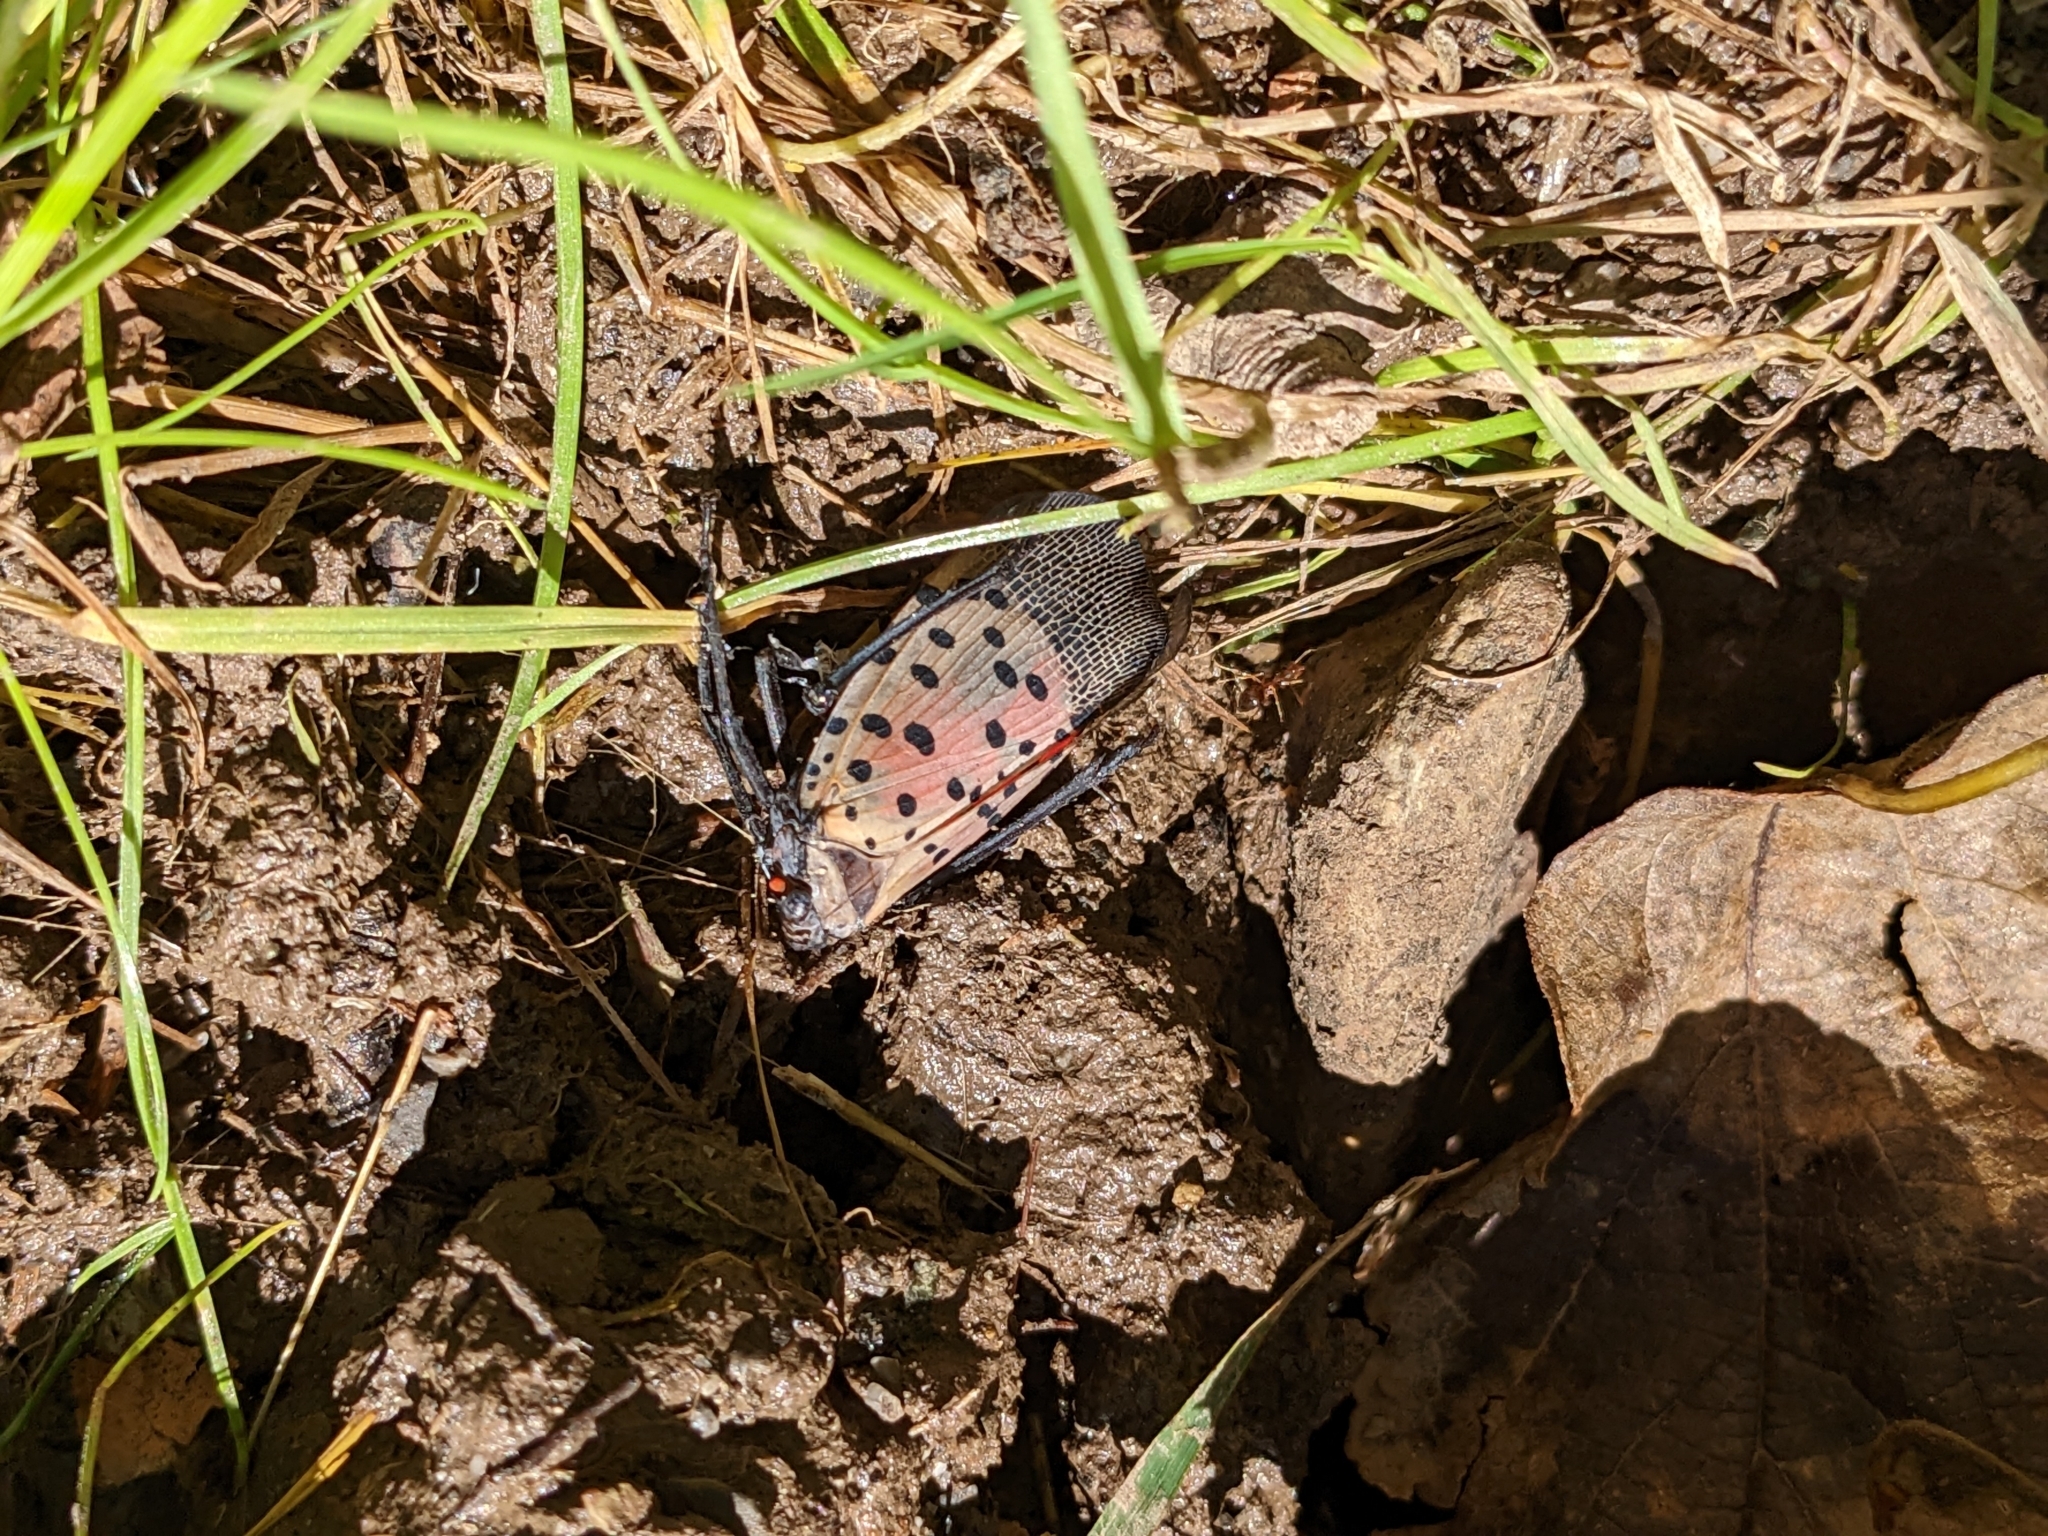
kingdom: Animalia
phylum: Arthropoda
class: Insecta
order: Hemiptera
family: Fulgoridae
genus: Lycorma
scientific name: Lycorma delicatula
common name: Spotted lanternfly
